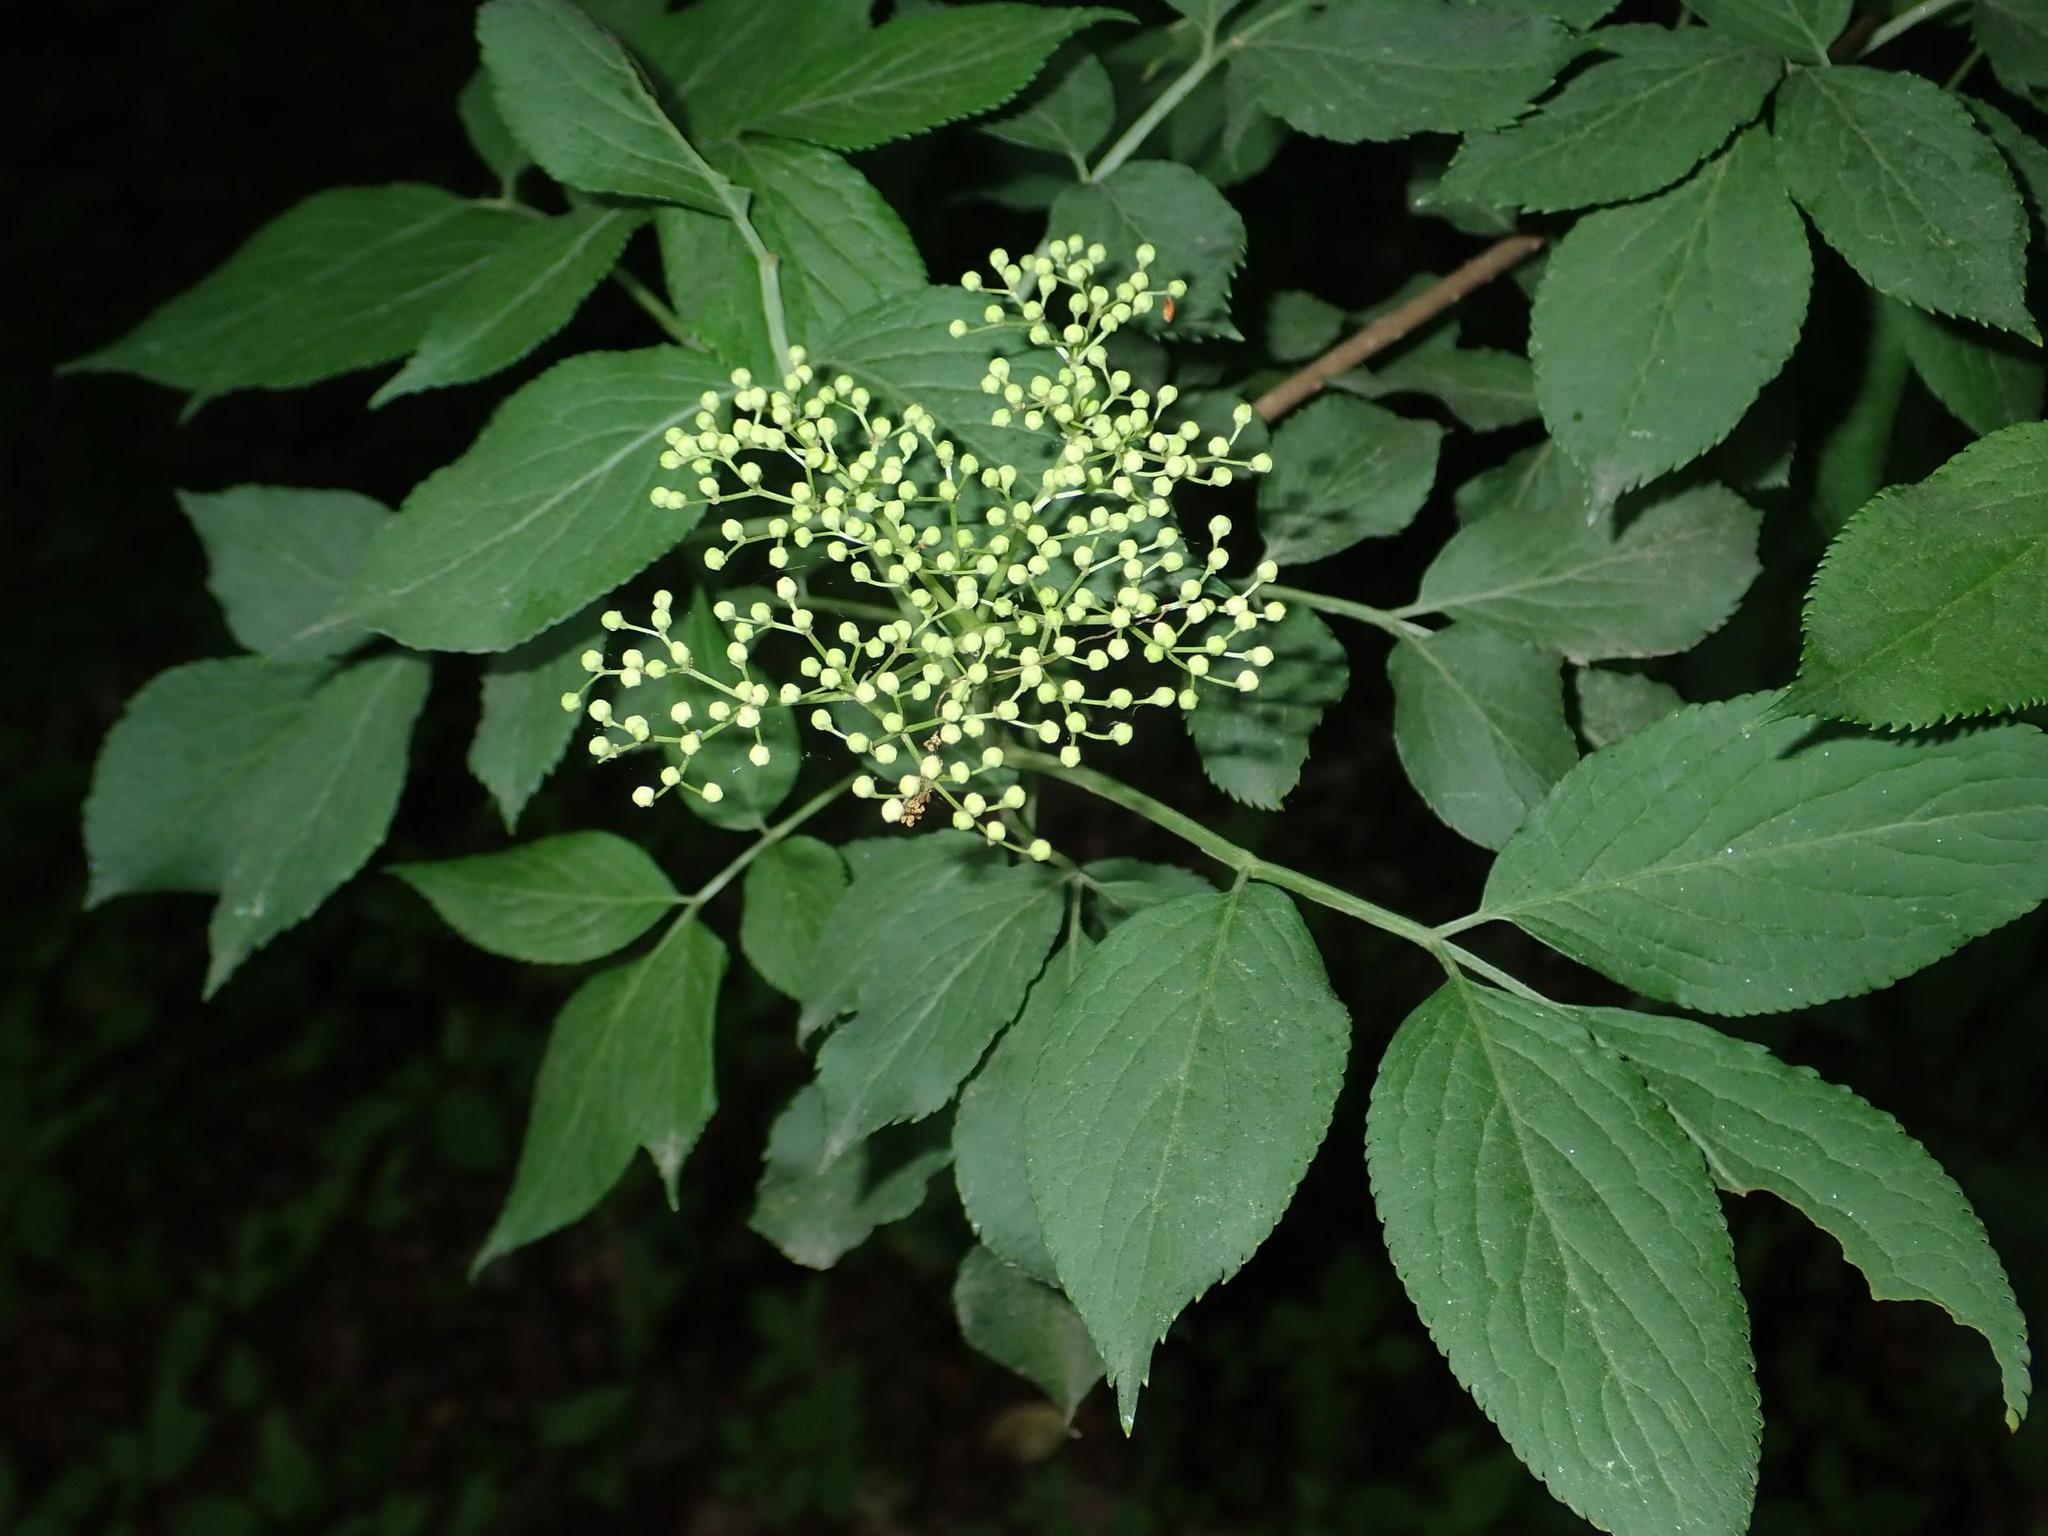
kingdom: Plantae
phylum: Tracheophyta
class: Magnoliopsida
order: Dipsacales
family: Viburnaceae
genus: Sambucus
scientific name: Sambucus nigra
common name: Elder
